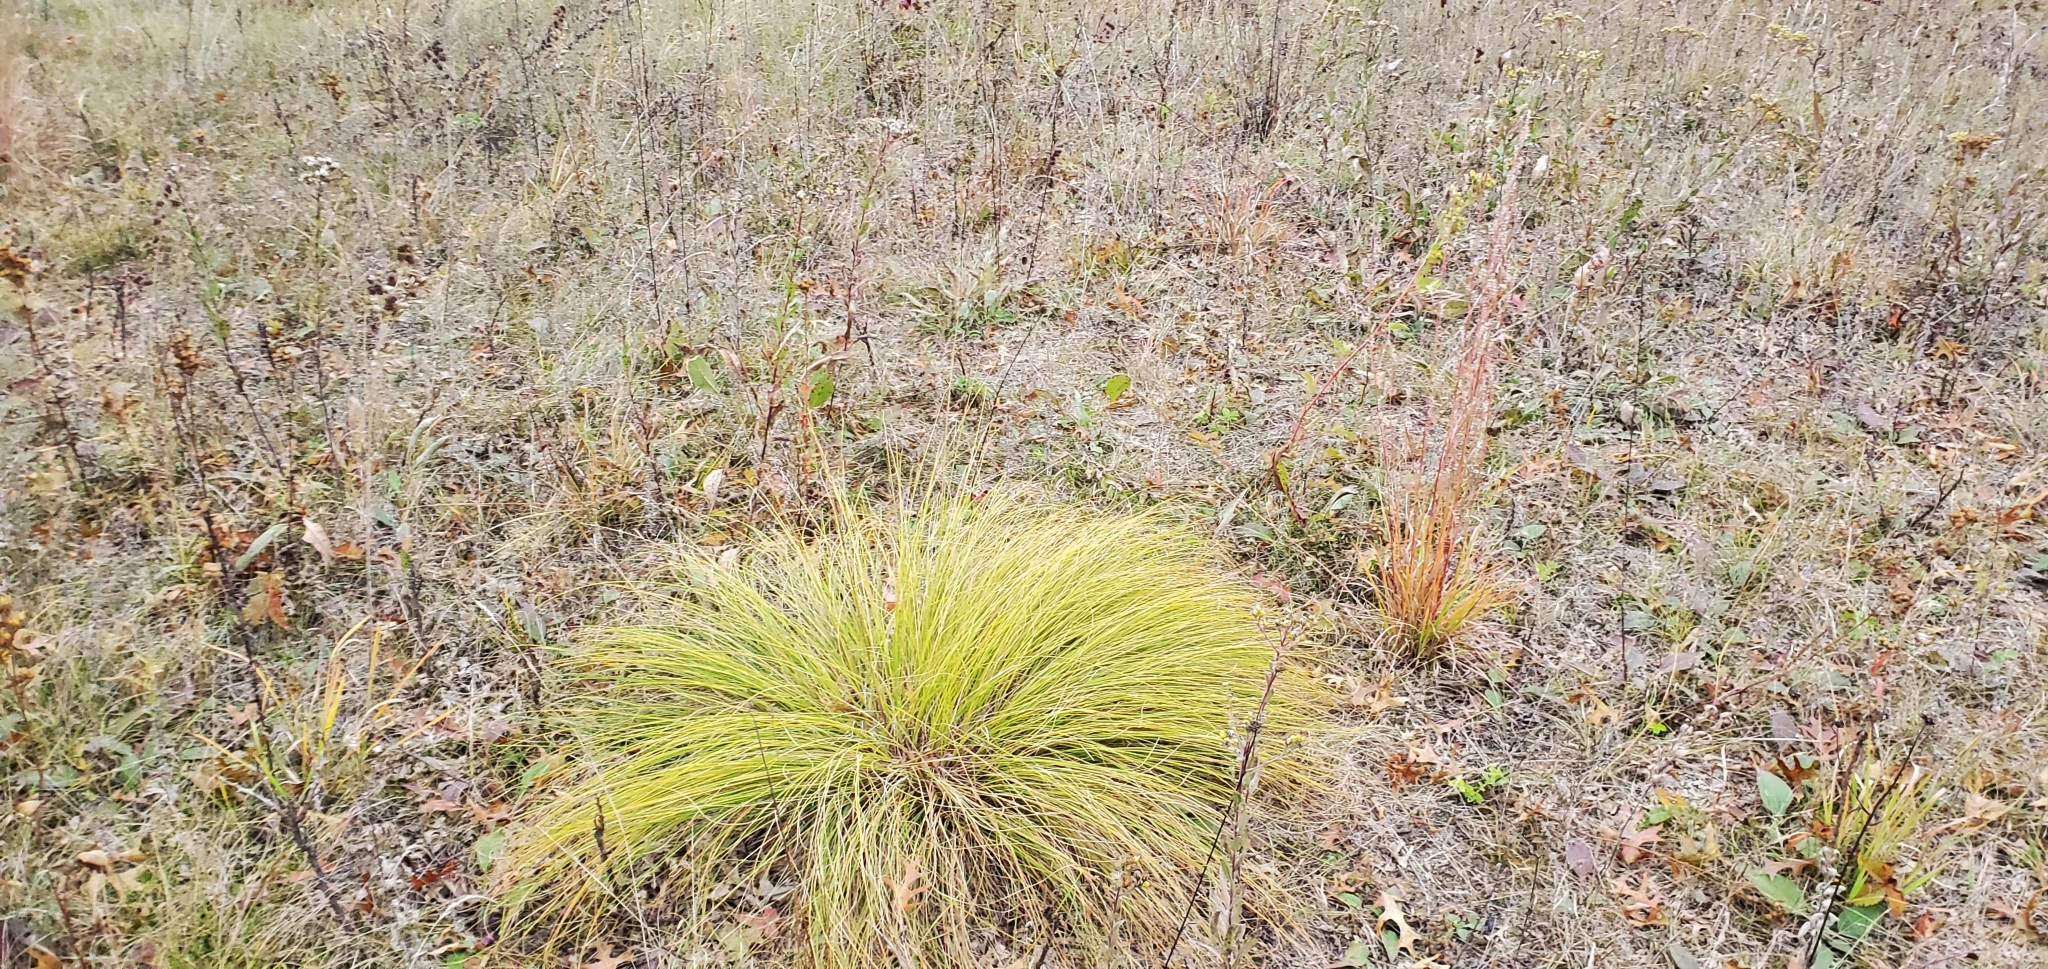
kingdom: Plantae
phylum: Tracheophyta
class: Liliopsida
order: Poales
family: Poaceae
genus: Sporobolus
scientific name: Sporobolus heterolepis
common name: Prairie dropseed
